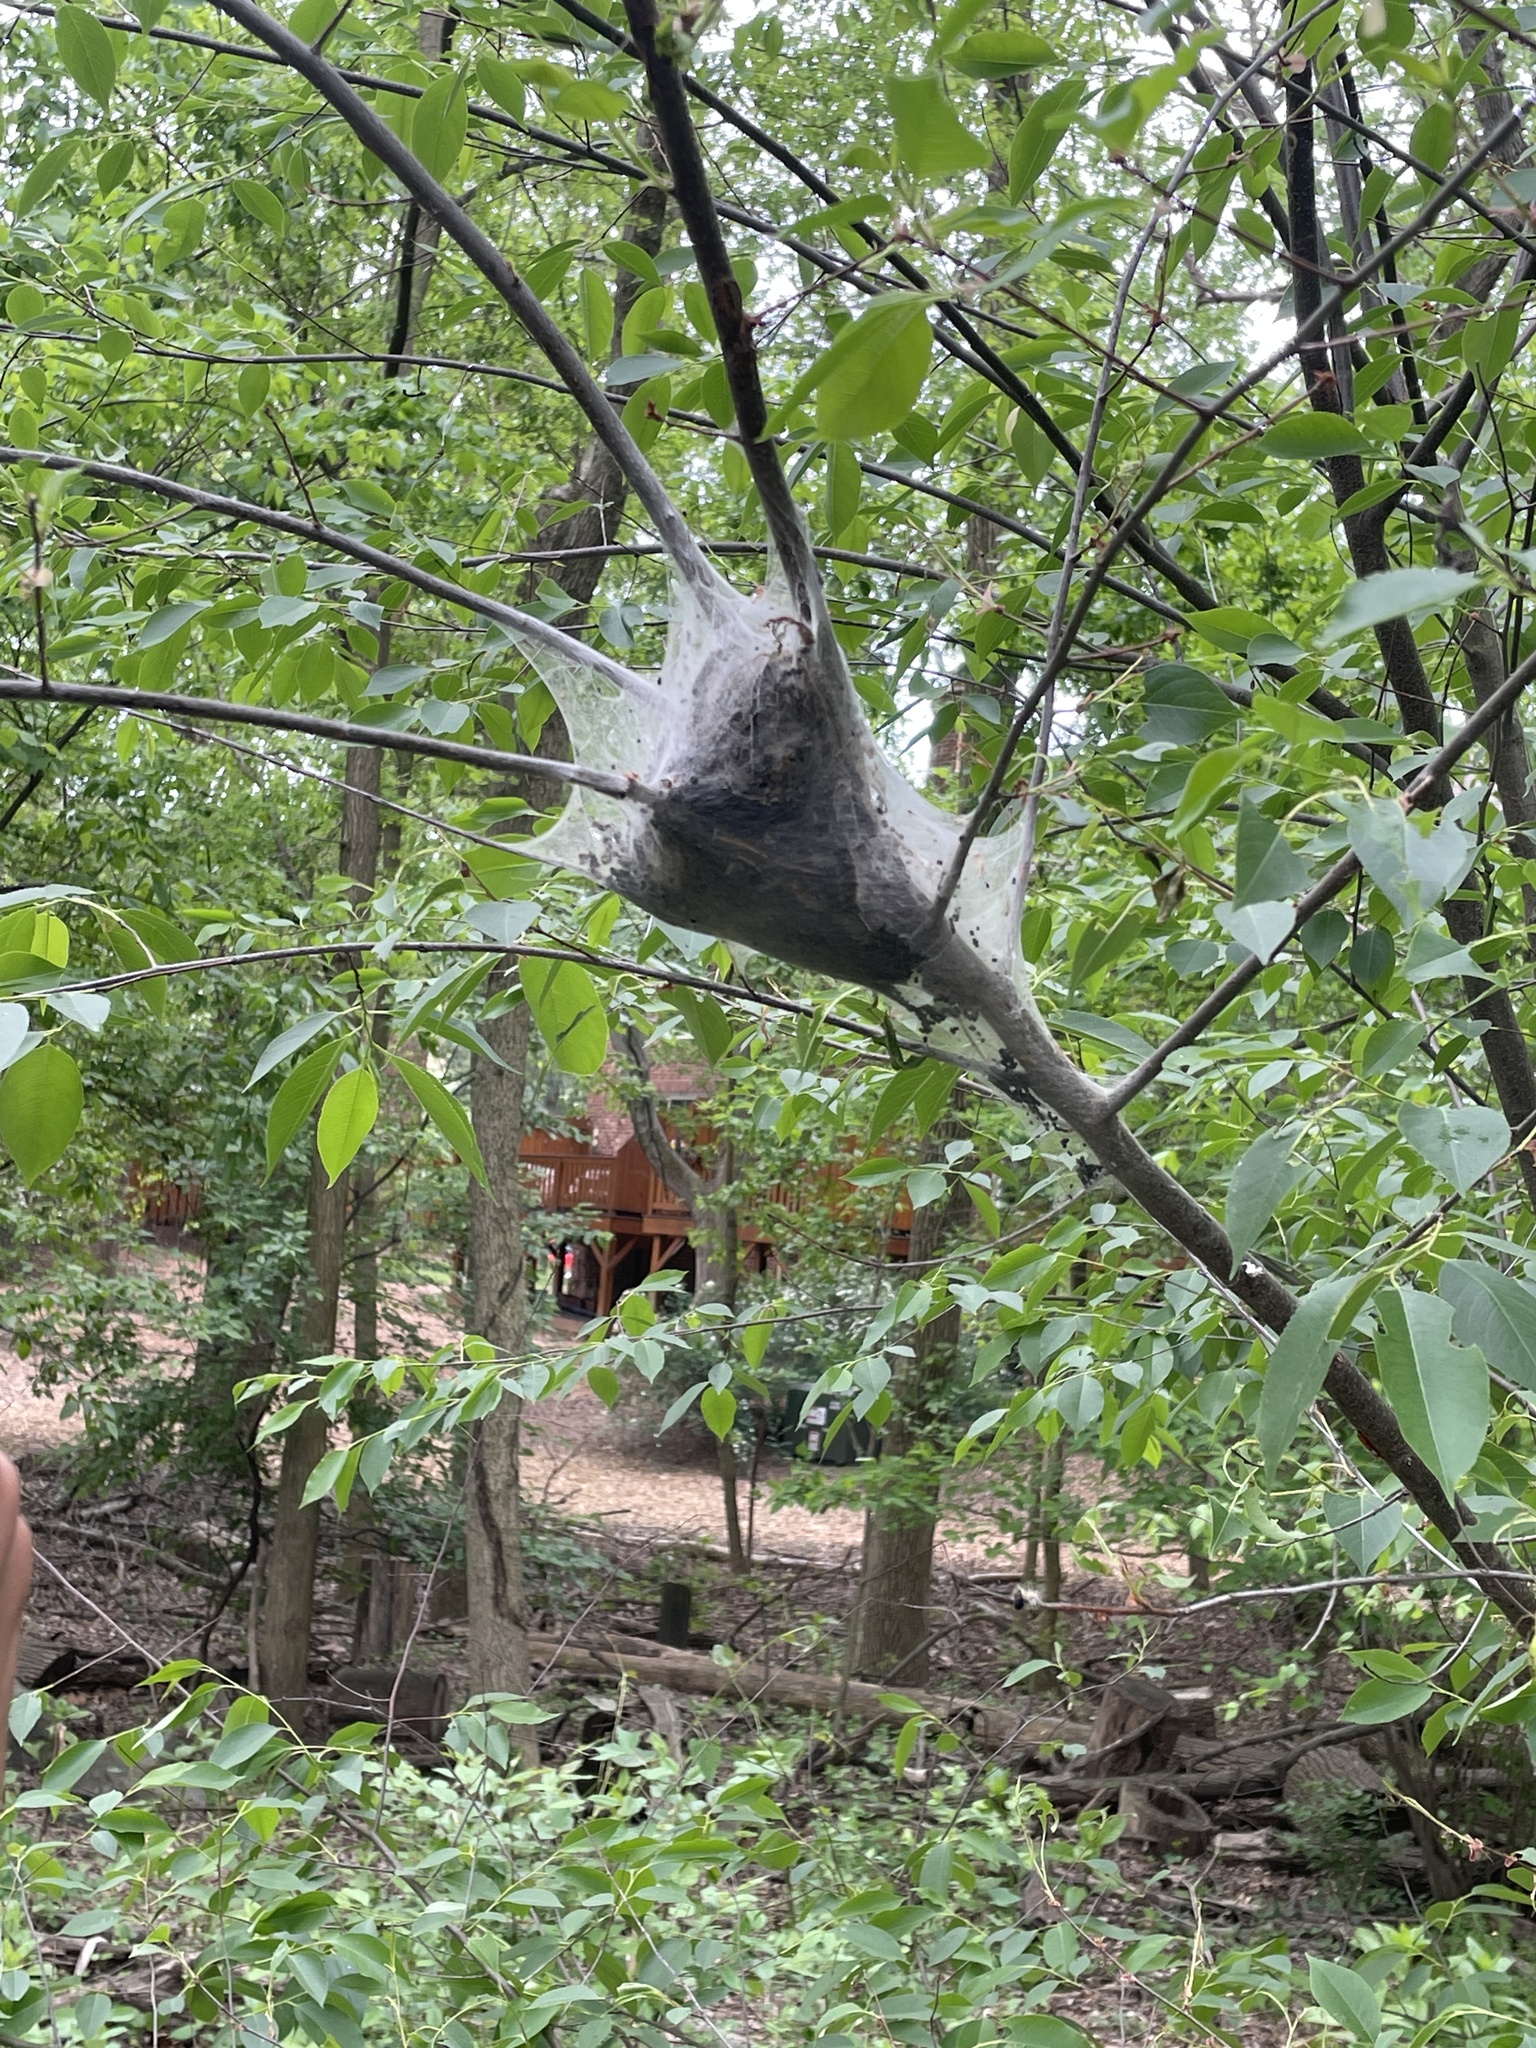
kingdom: Animalia
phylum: Arthropoda
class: Insecta
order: Lepidoptera
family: Lasiocampidae
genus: Malacosoma
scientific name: Malacosoma americana
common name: Eastern tent caterpillar moth
